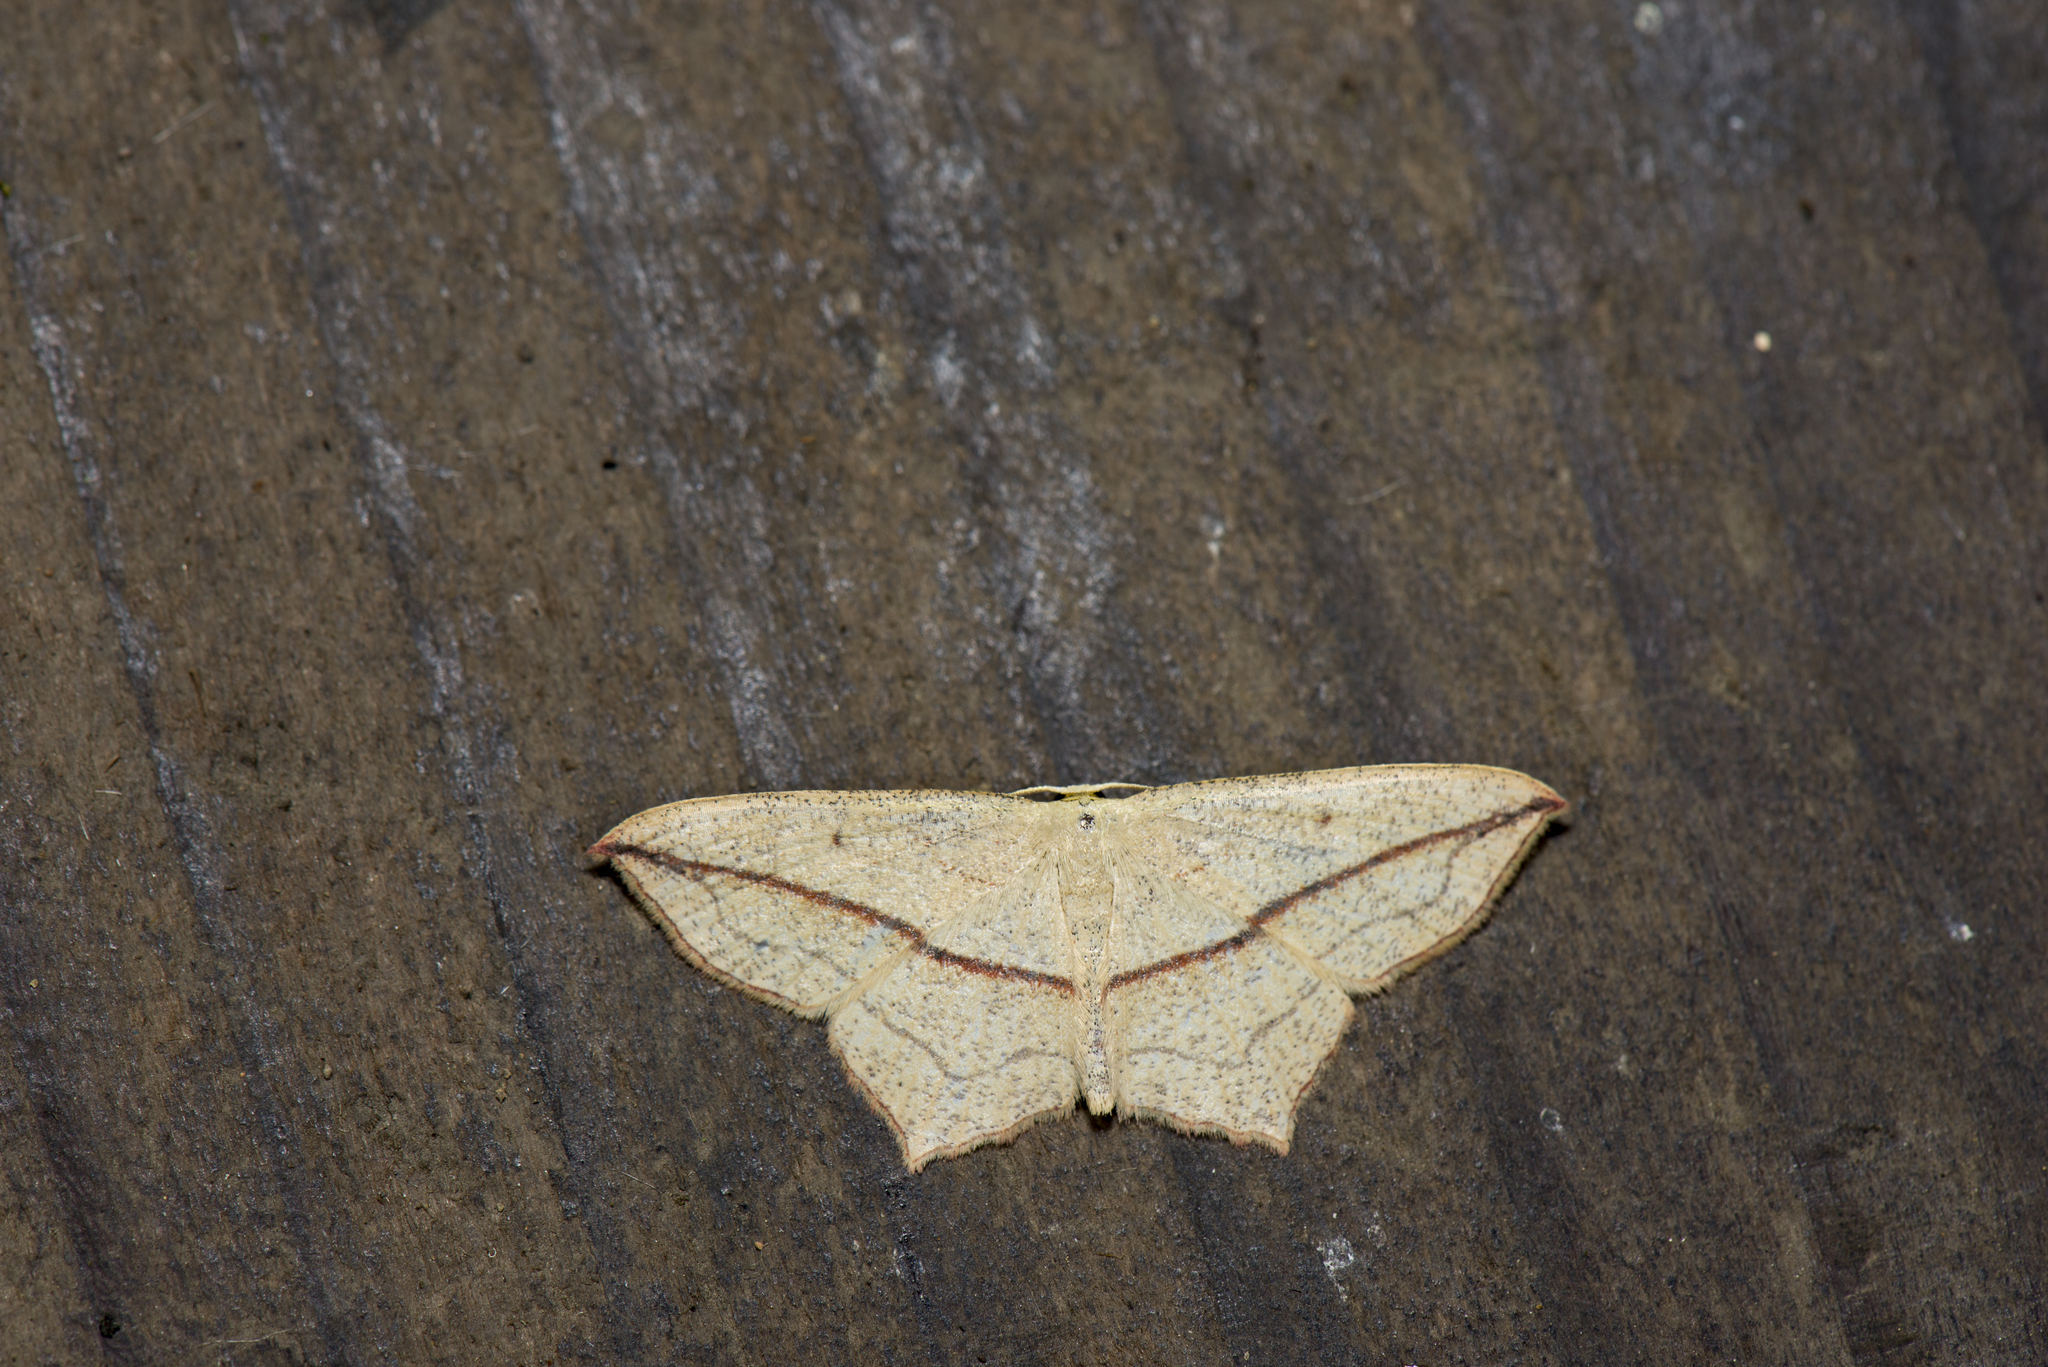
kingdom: Animalia
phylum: Arthropoda
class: Insecta
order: Lepidoptera
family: Geometridae
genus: Timandra
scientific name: Timandra synthaca
